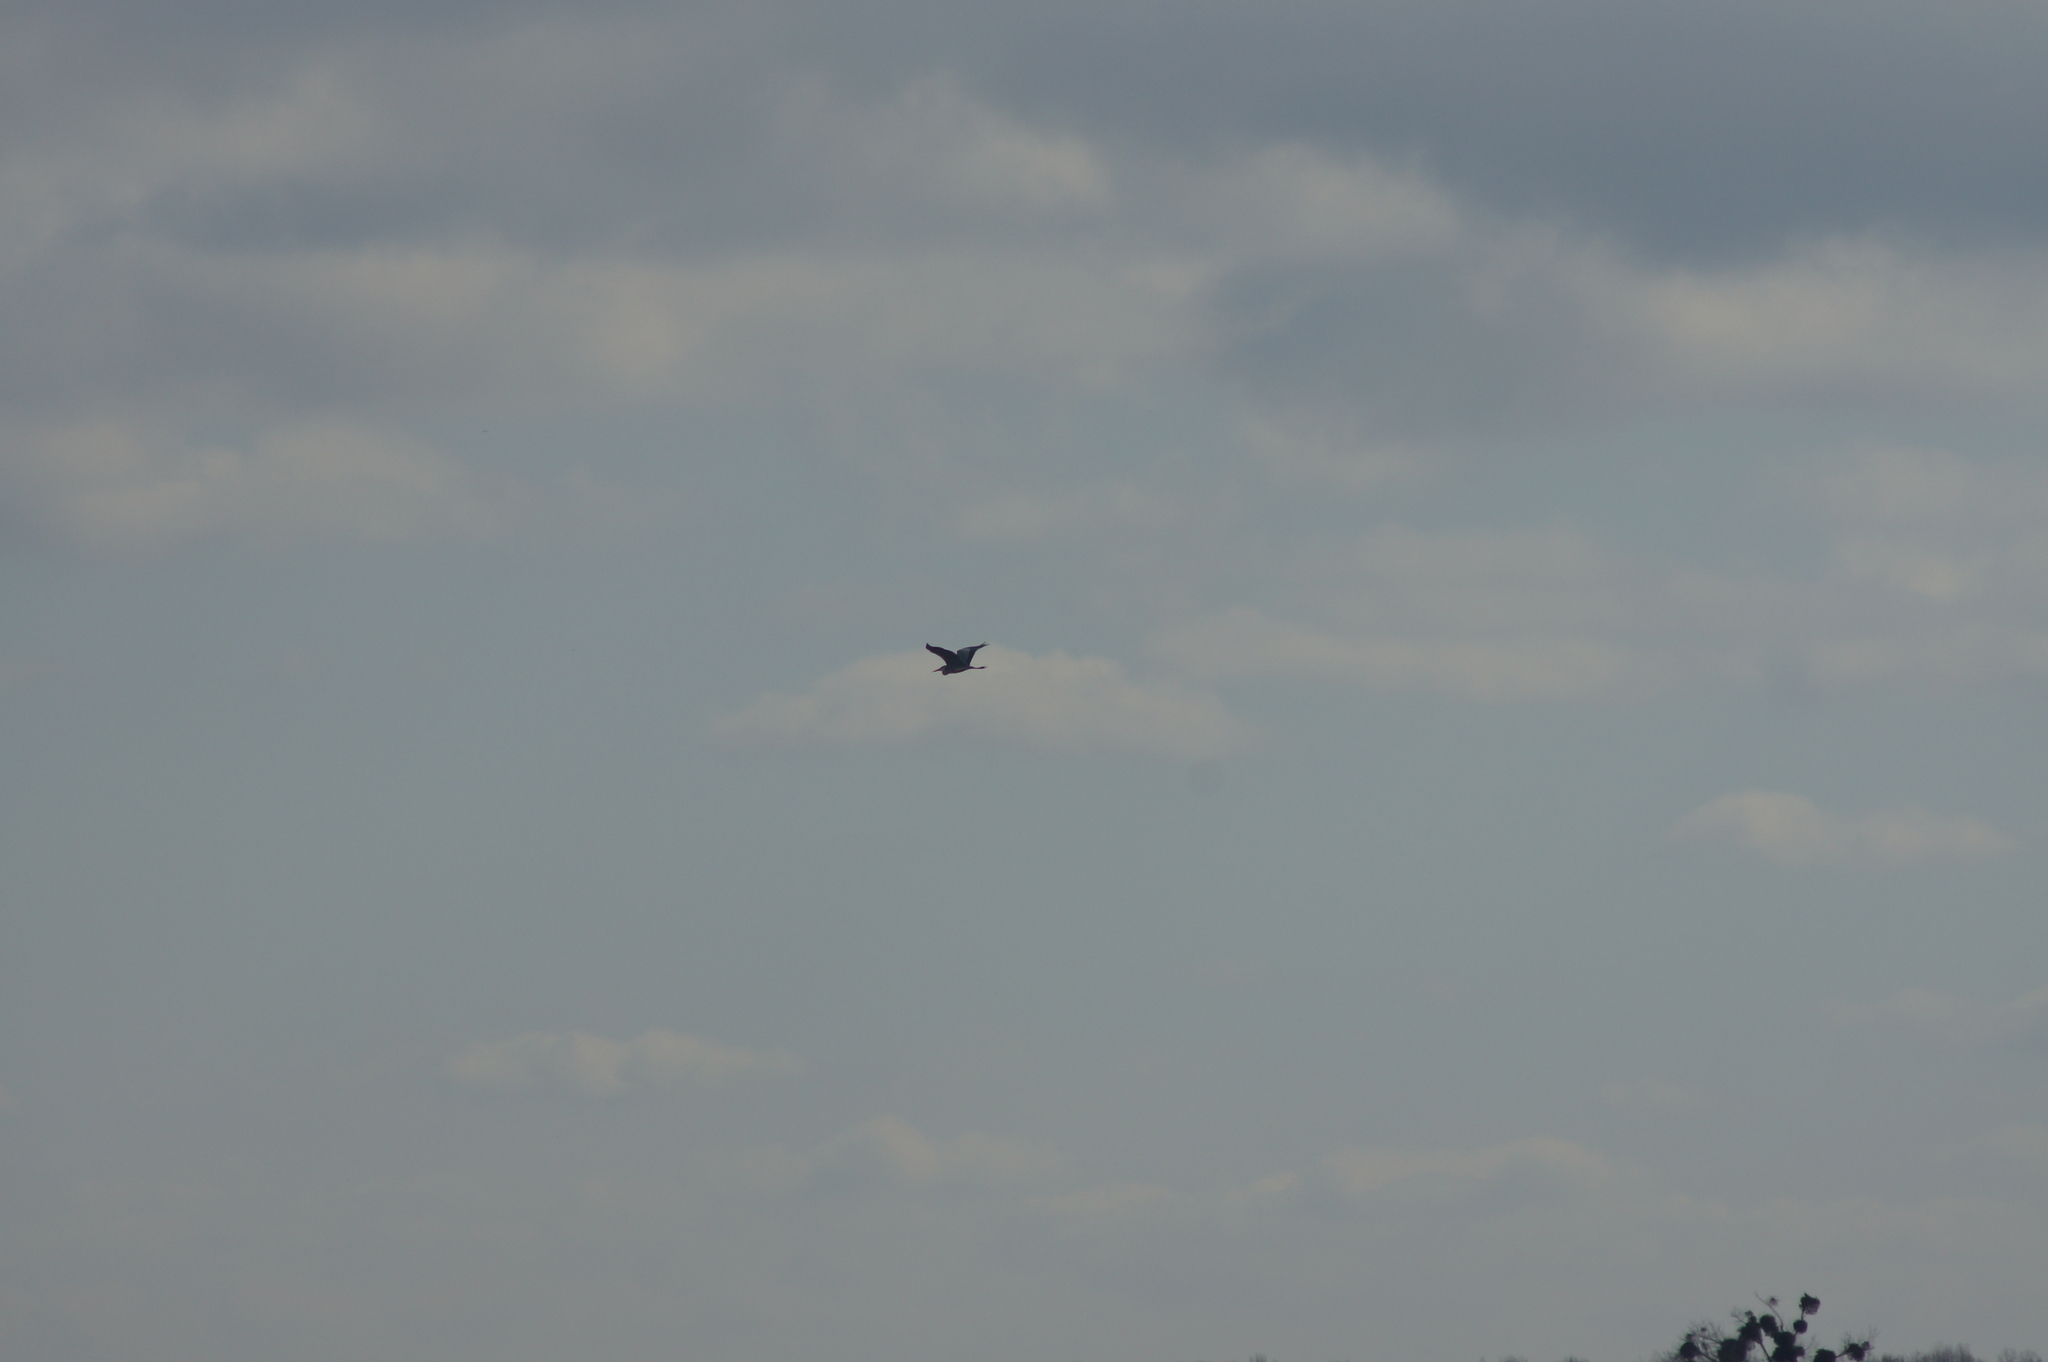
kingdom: Animalia
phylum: Chordata
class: Aves
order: Pelecaniformes
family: Ardeidae
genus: Ardea
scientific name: Ardea cinerea
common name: Grey heron
